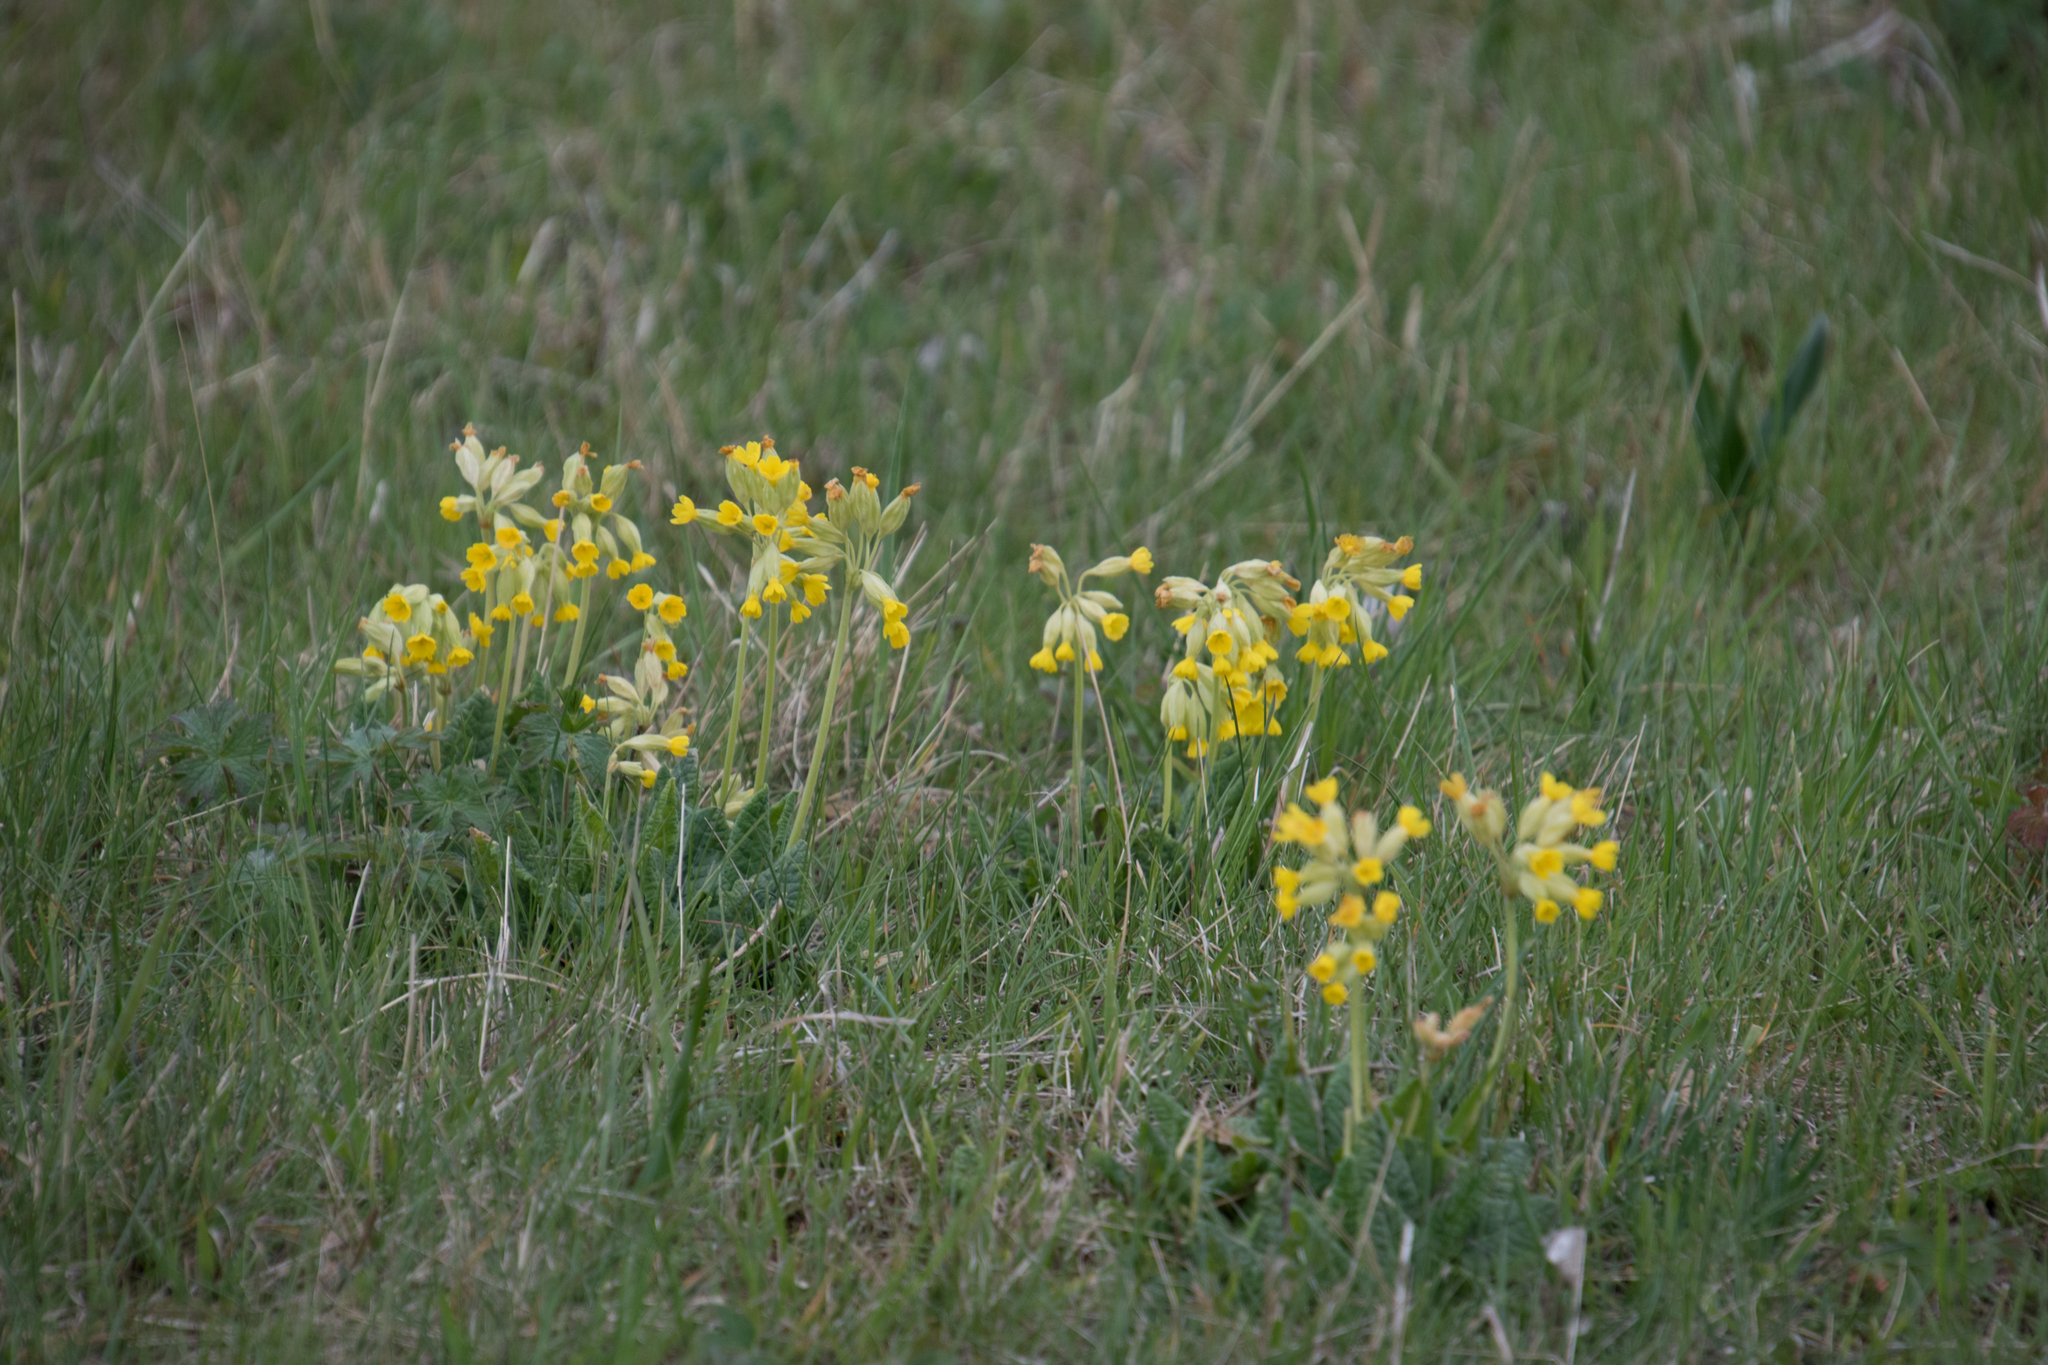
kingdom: Plantae
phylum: Tracheophyta
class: Magnoliopsida
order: Ericales
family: Primulaceae
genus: Primula
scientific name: Primula veris
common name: Cowslip
